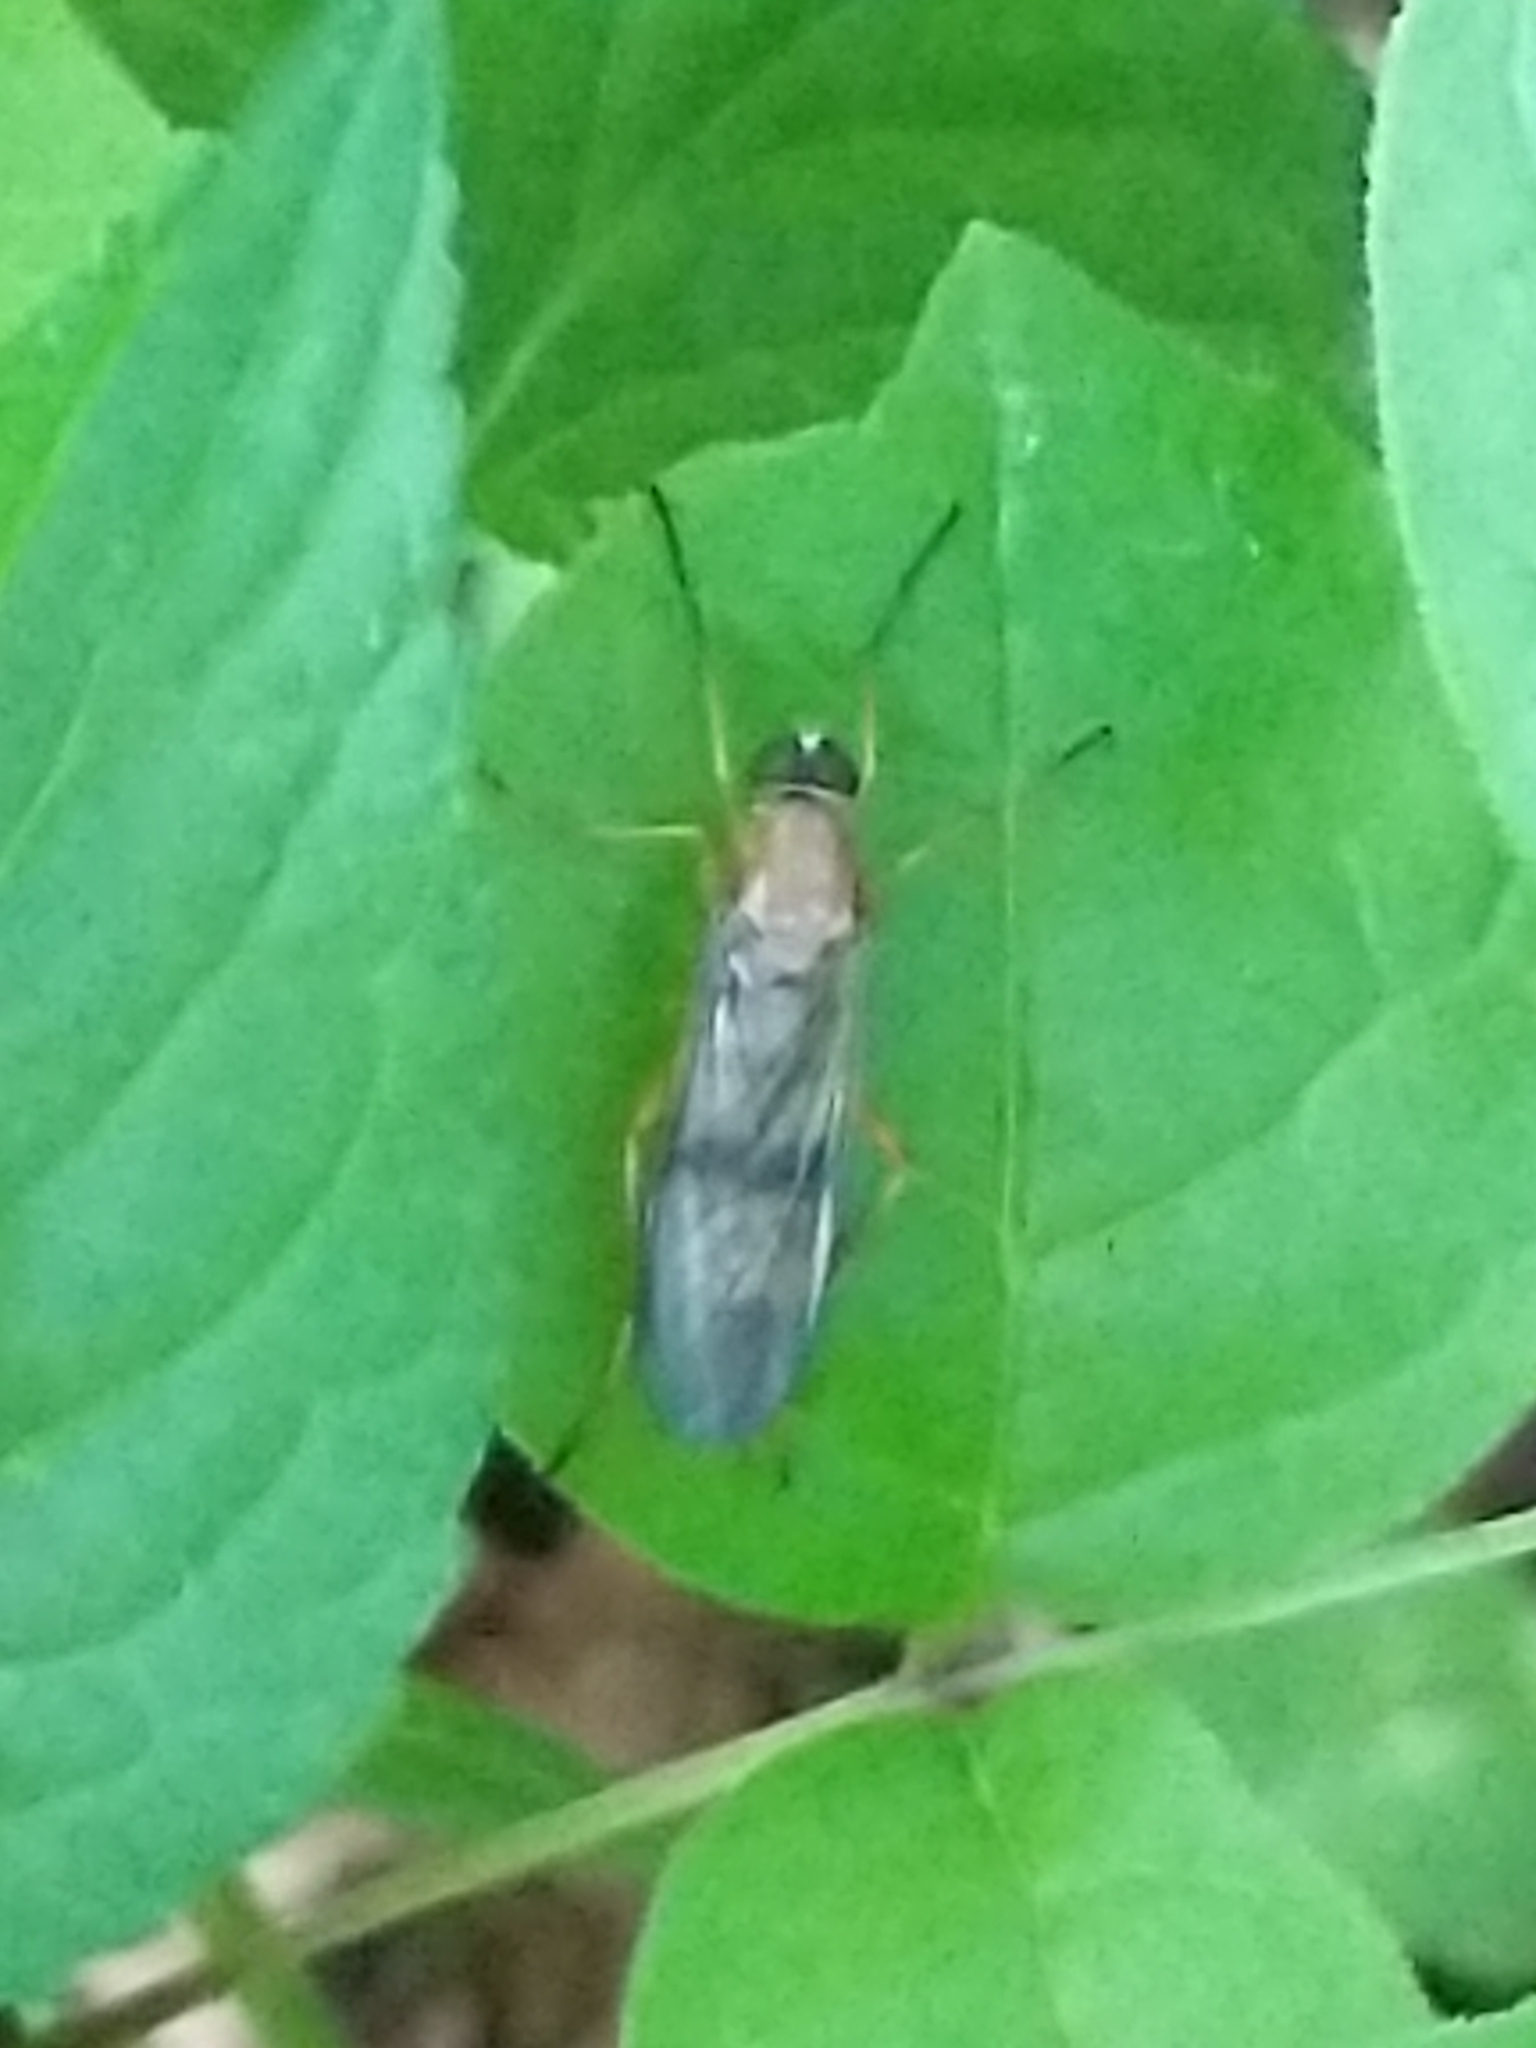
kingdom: Animalia
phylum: Arthropoda
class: Insecta
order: Diptera
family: Xylophagidae
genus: Dialysis
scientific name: Dialysis elongata
